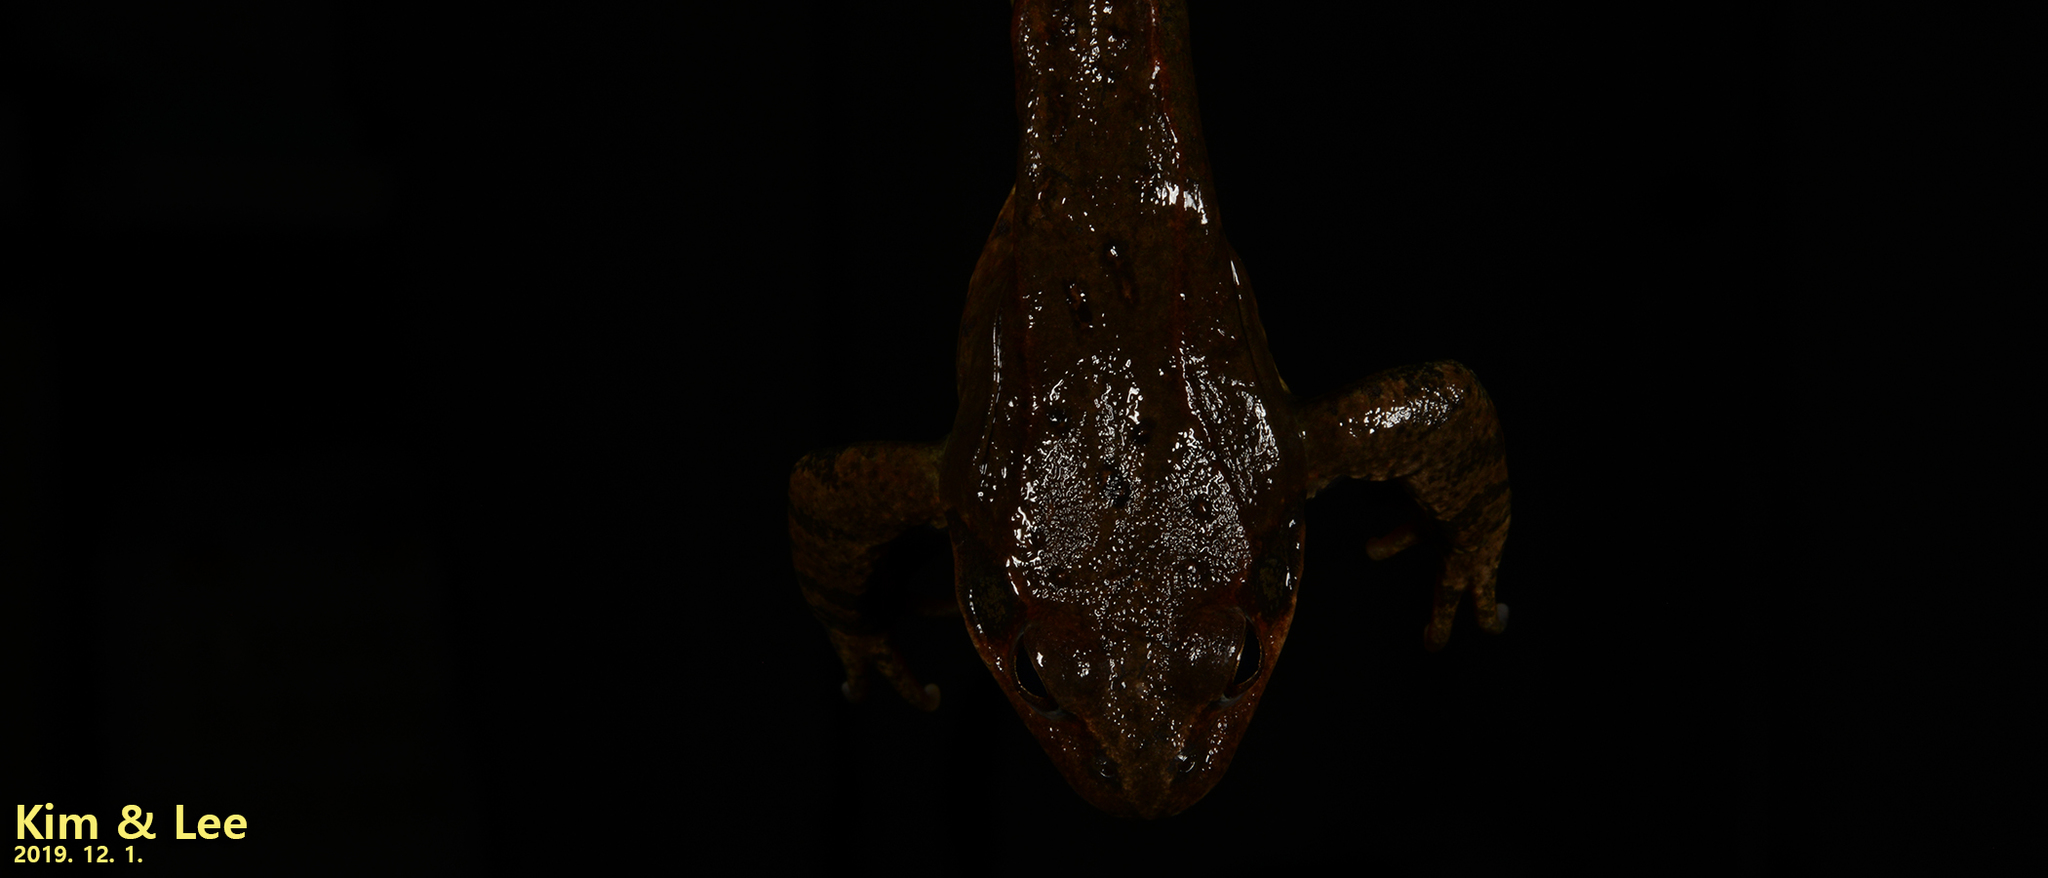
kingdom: Animalia
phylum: Chordata
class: Amphibia
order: Anura
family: Ranidae
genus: Rana
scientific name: Rana dybowskii
